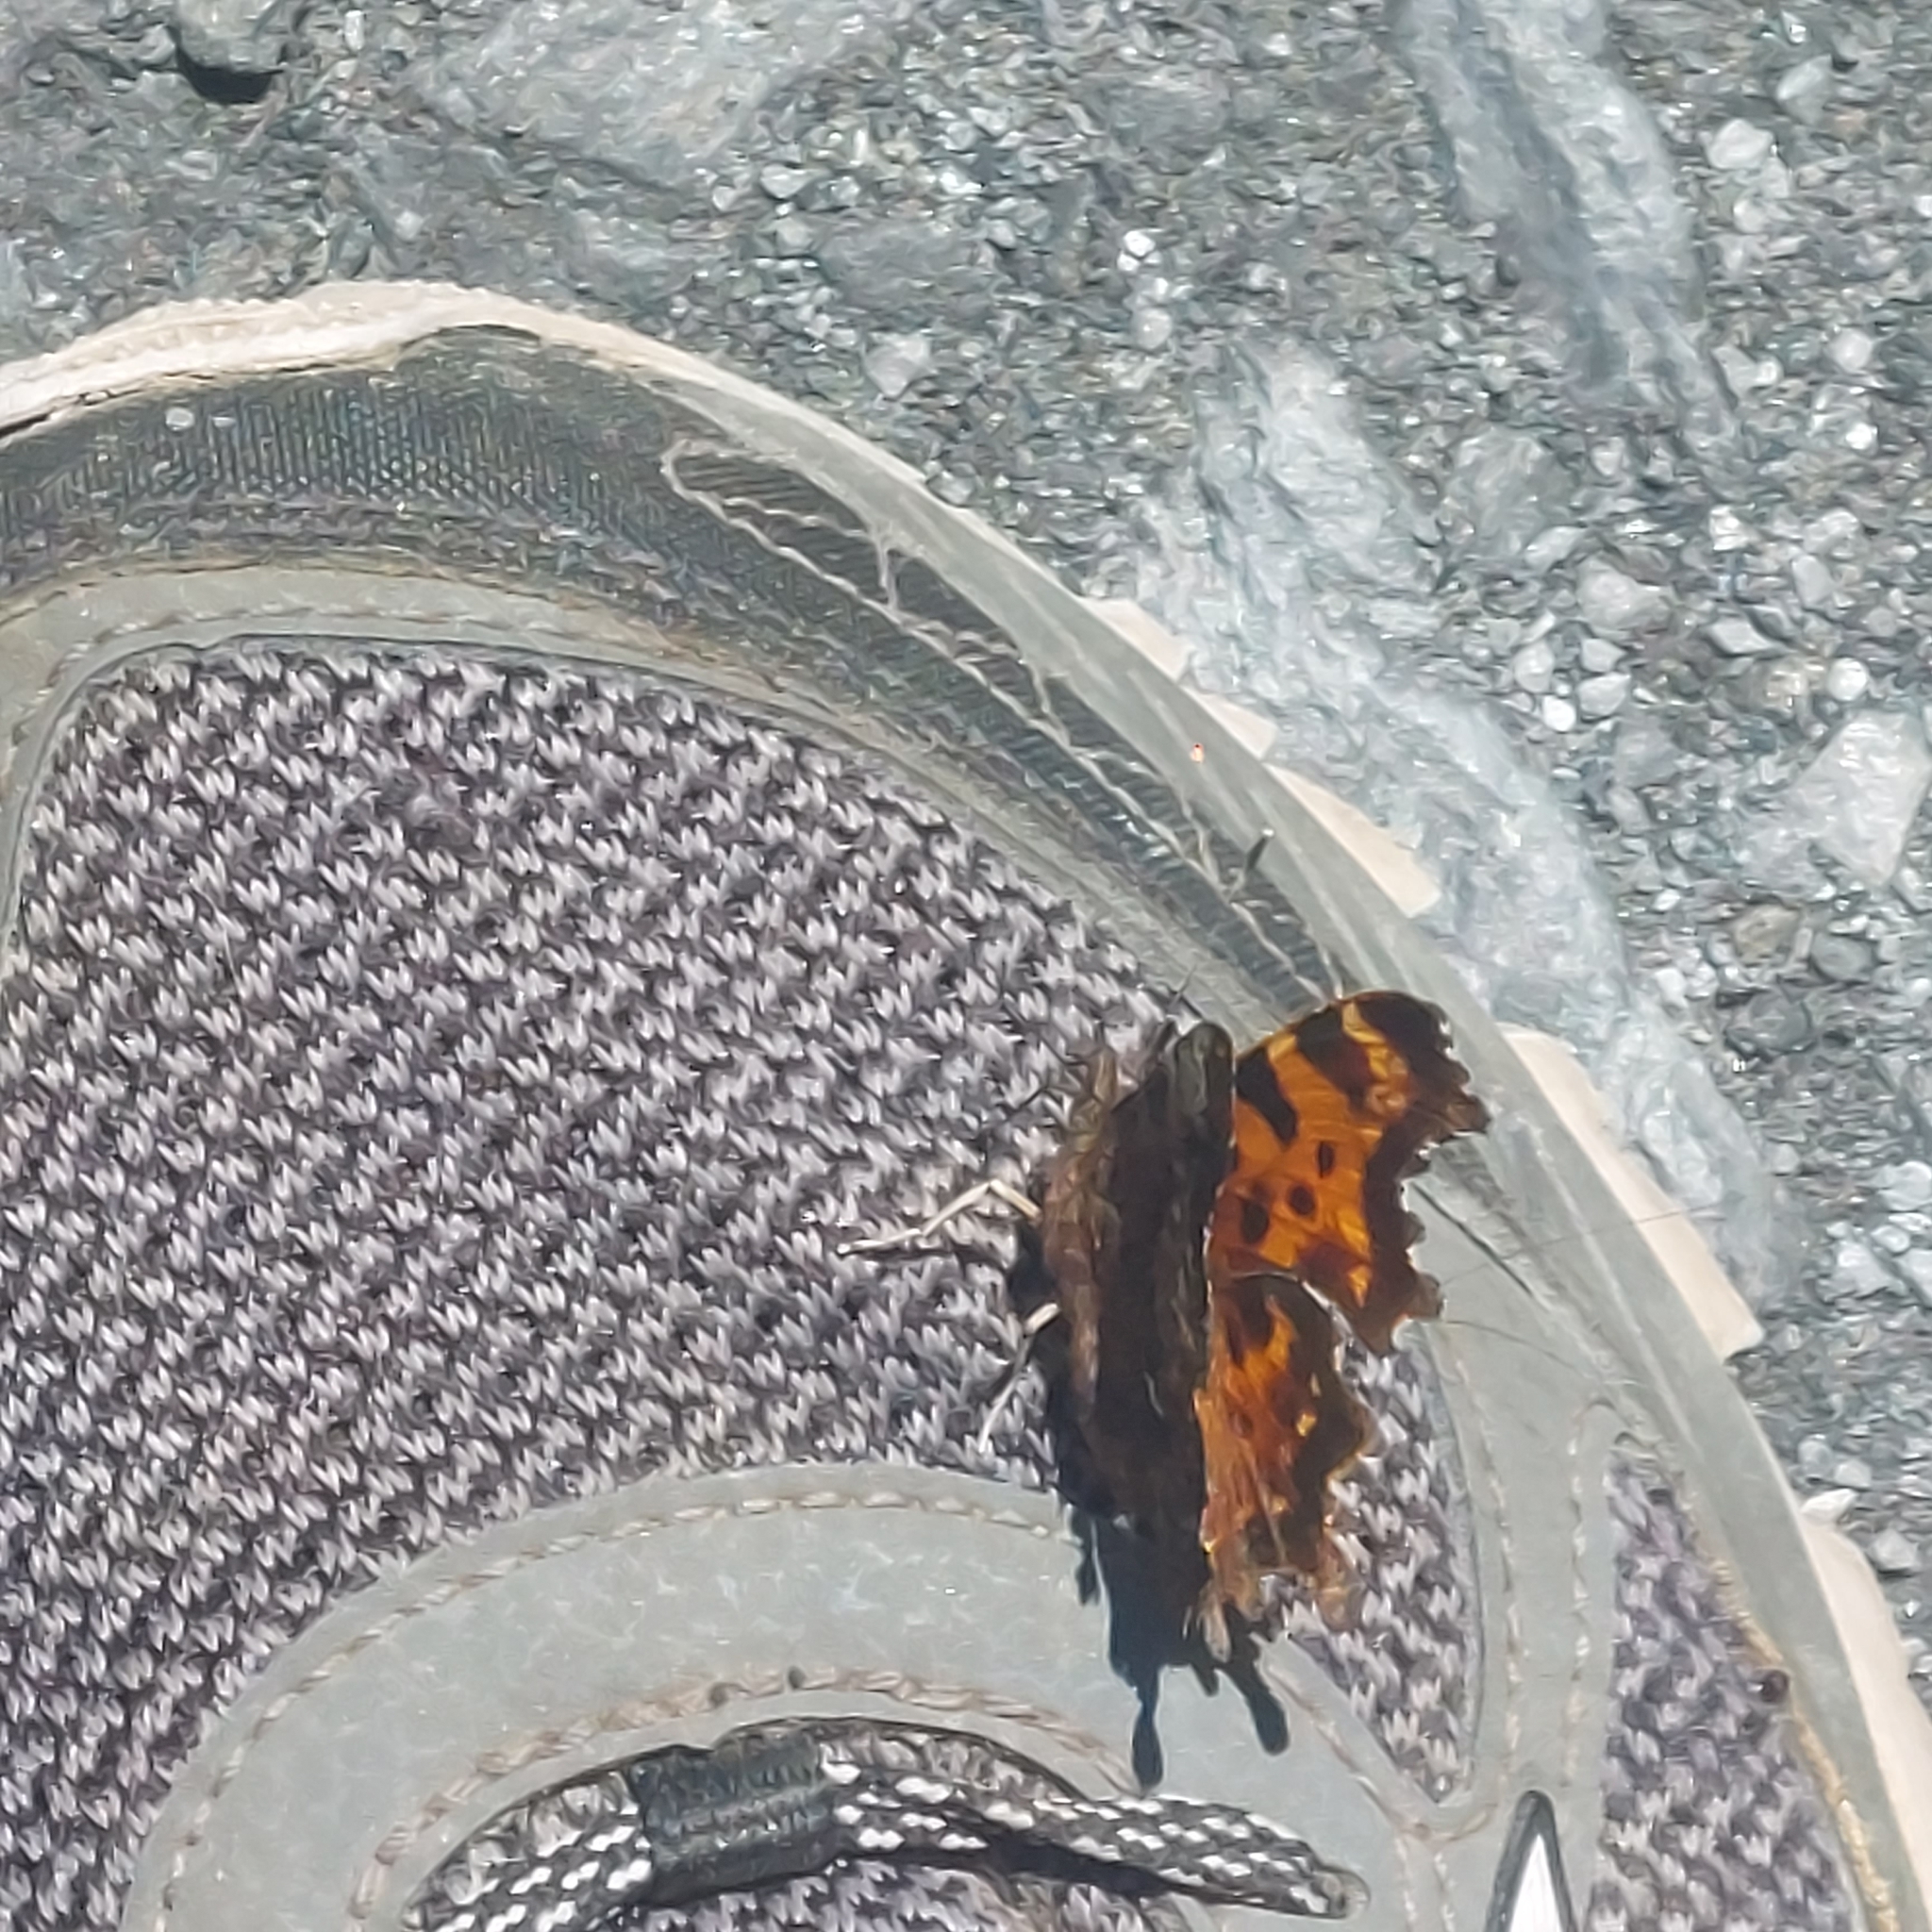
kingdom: Animalia
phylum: Arthropoda
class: Insecta
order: Lepidoptera
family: Nymphalidae
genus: Polygonia
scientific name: Polygonia faunus
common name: Green comma
